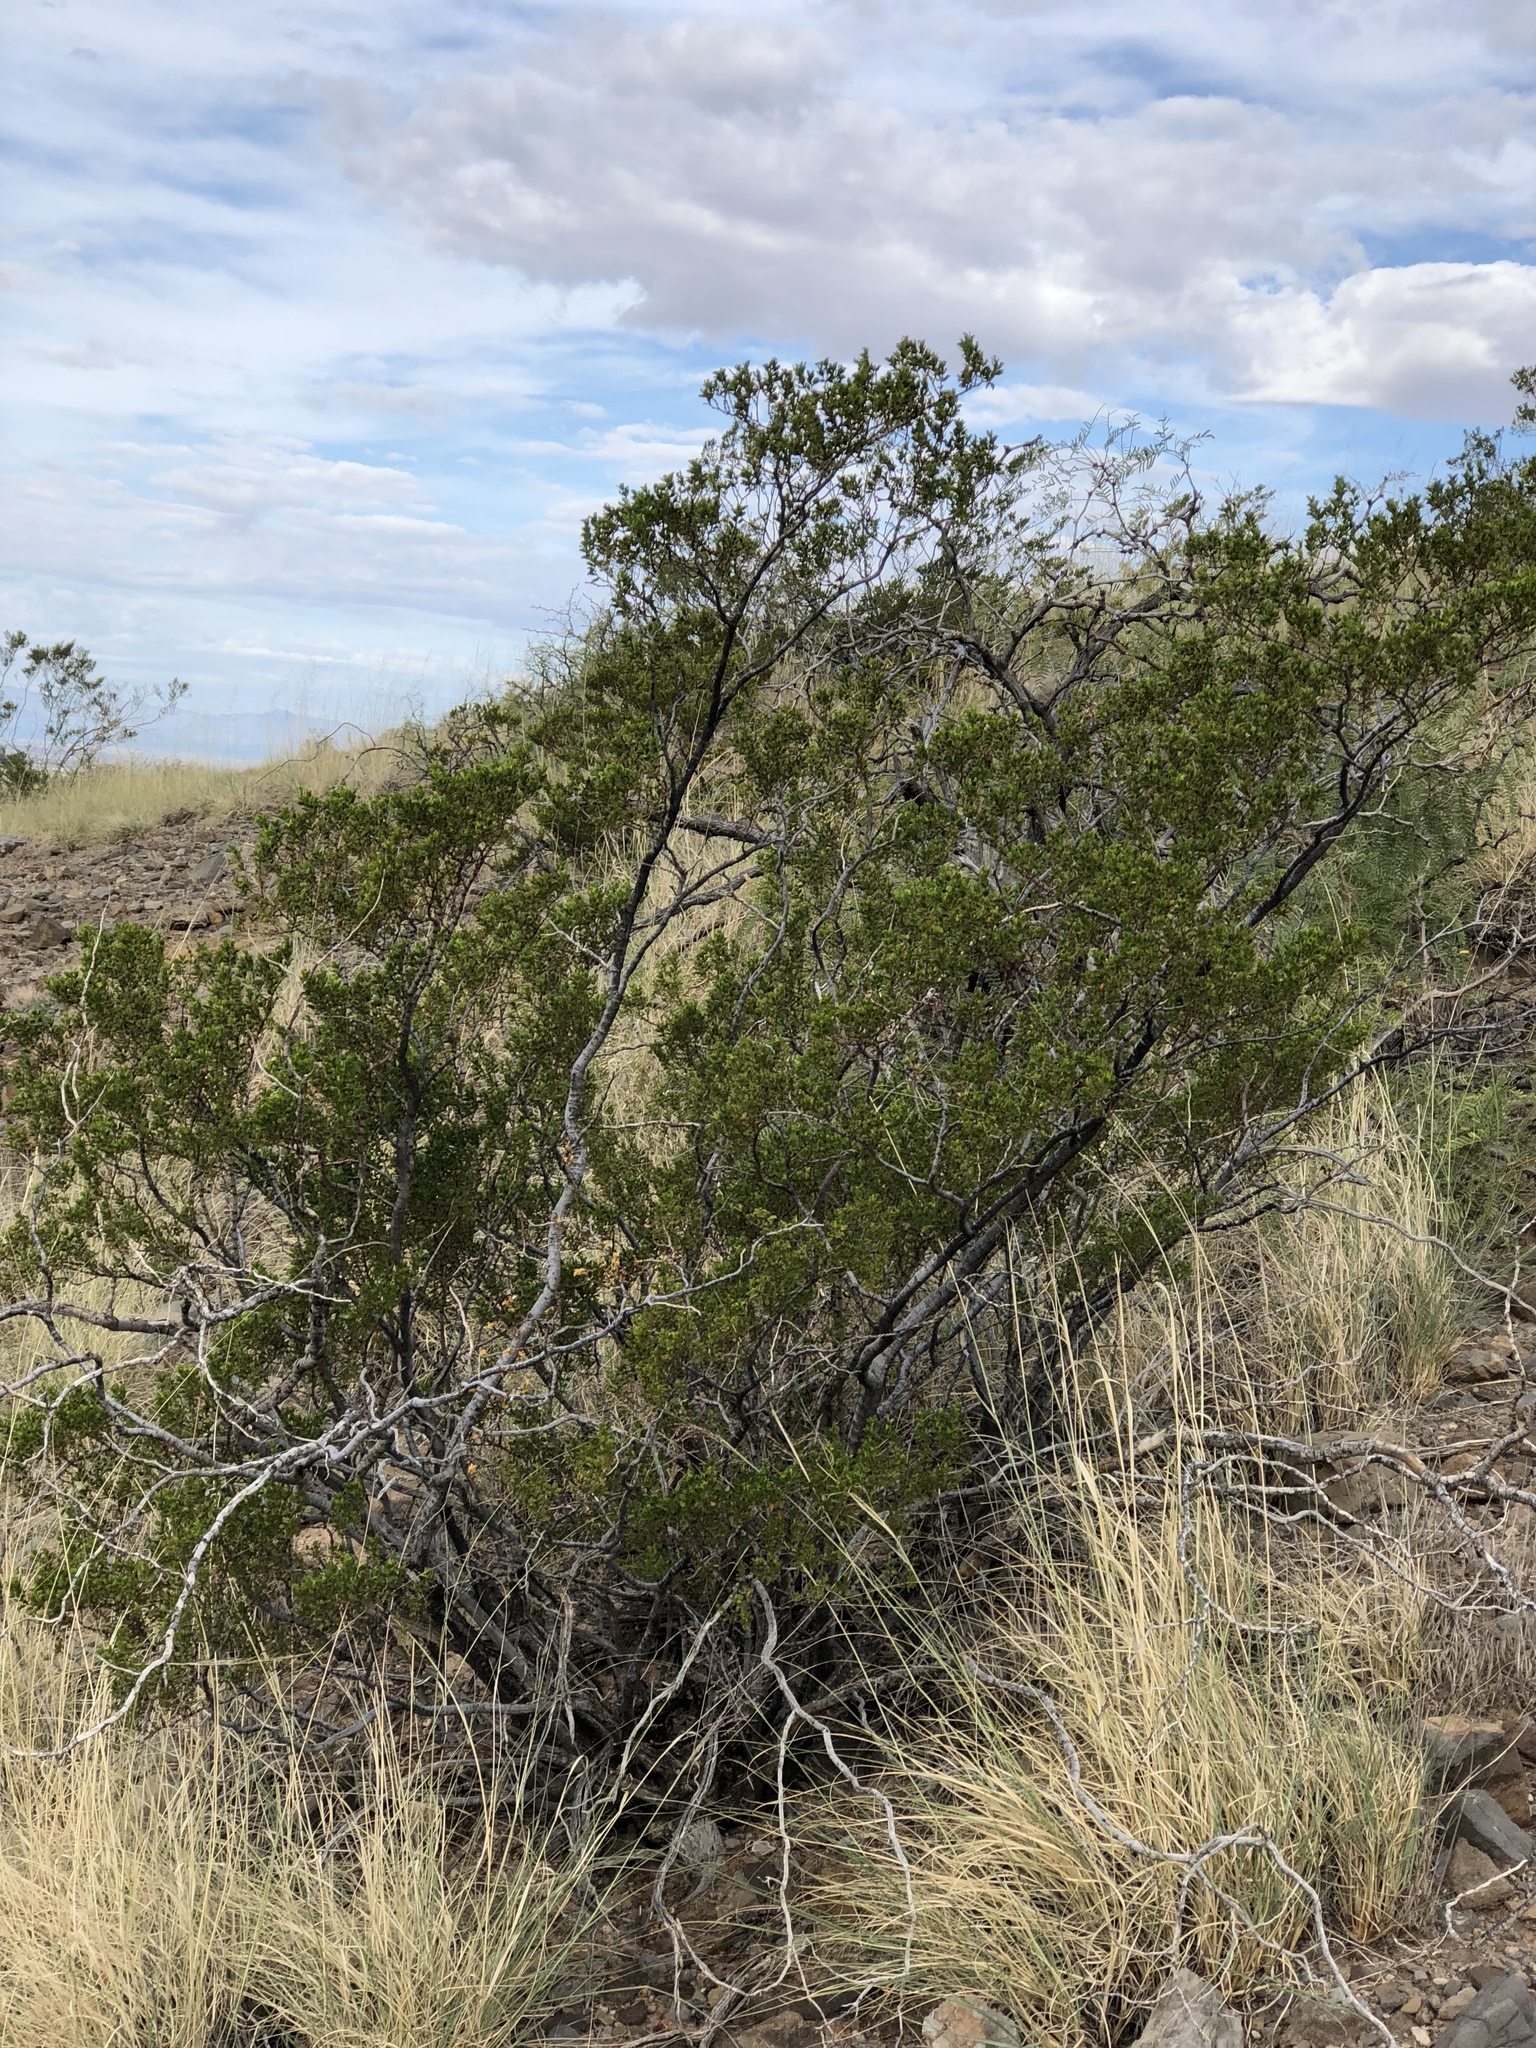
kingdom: Plantae
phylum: Tracheophyta
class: Magnoliopsida
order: Zygophyllales
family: Zygophyllaceae
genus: Larrea
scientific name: Larrea tridentata
